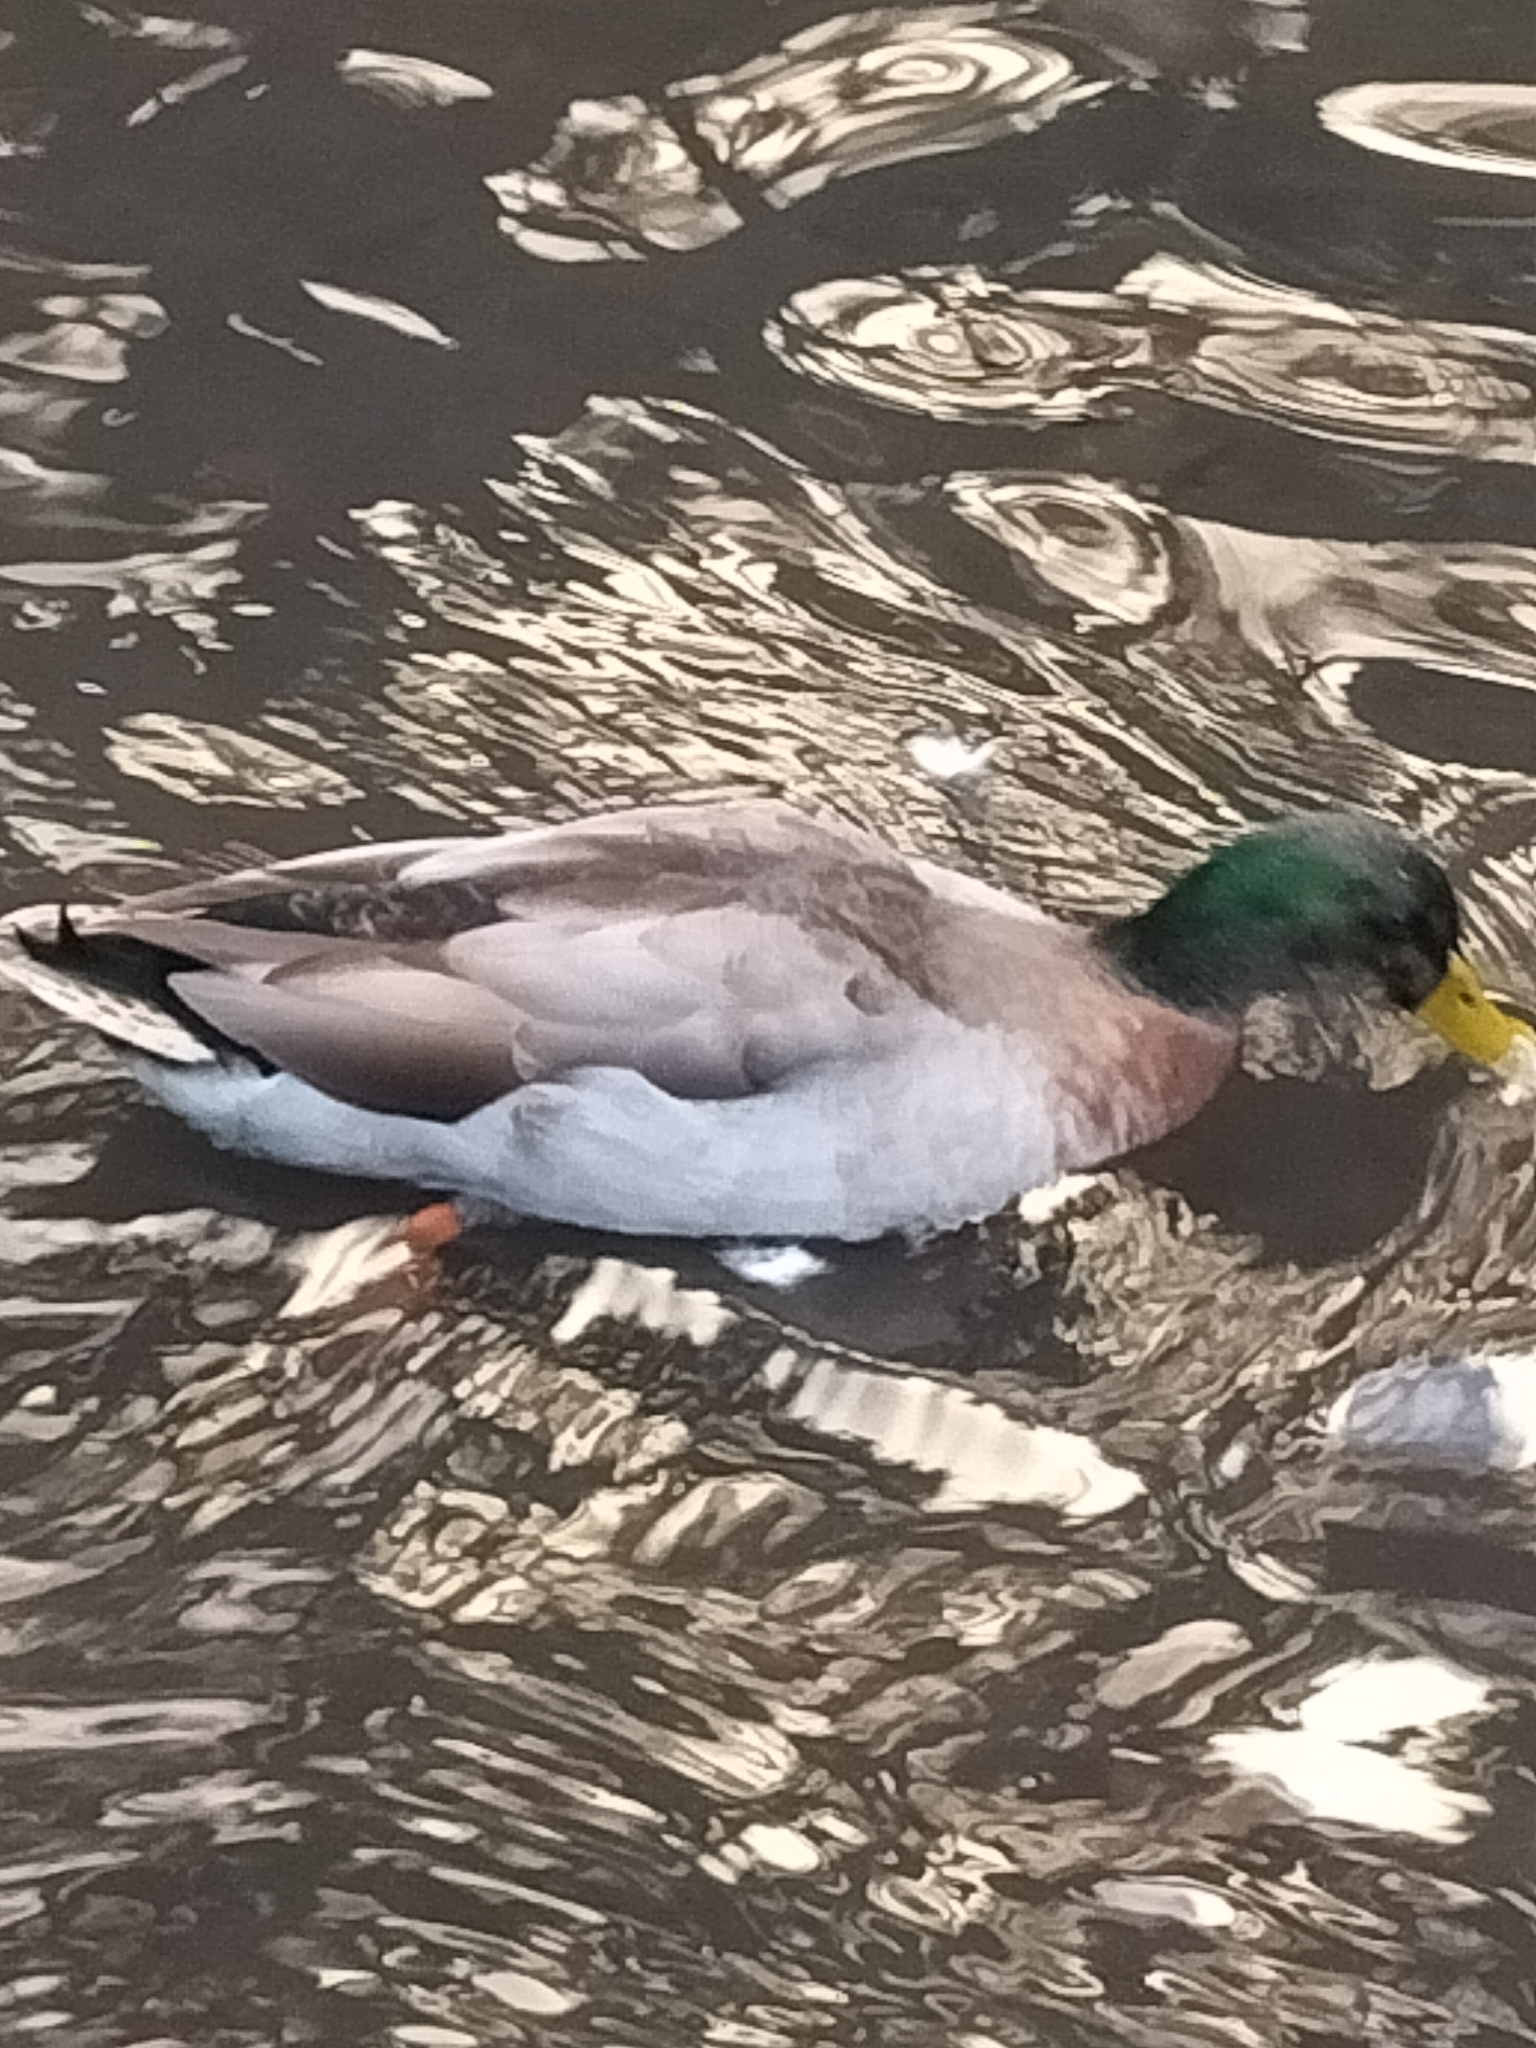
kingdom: Animalia
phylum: Chordata
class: Aves
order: Anseriformes
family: Anatidae
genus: Anas
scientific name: Anas platyrhynchos
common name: Mallard
